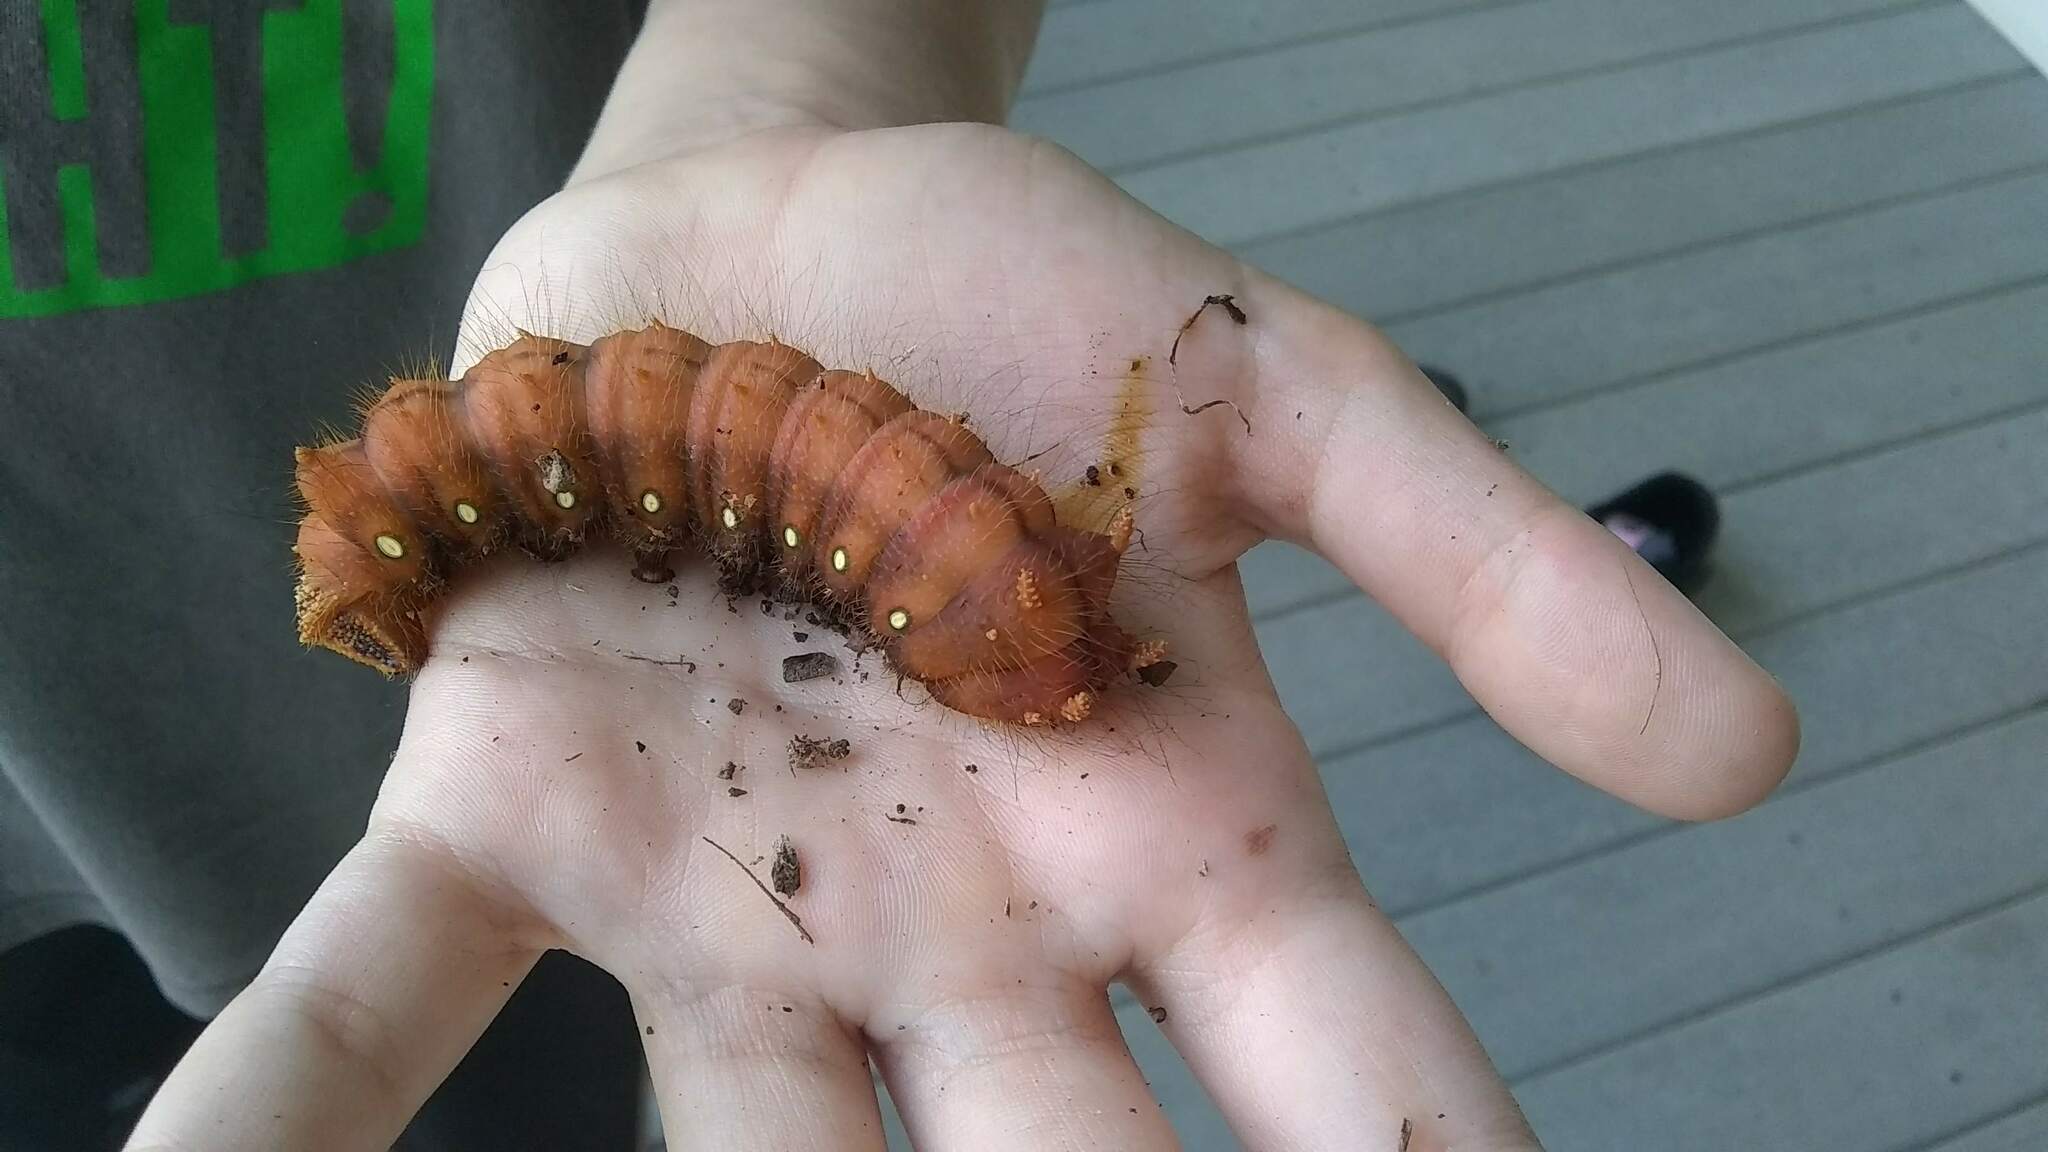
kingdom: Animalia
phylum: Arthropoda
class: Insecta
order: Lepidoptera
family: Saturniidae
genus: Eacles
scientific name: Eacles imperialis
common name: Imperial moth
